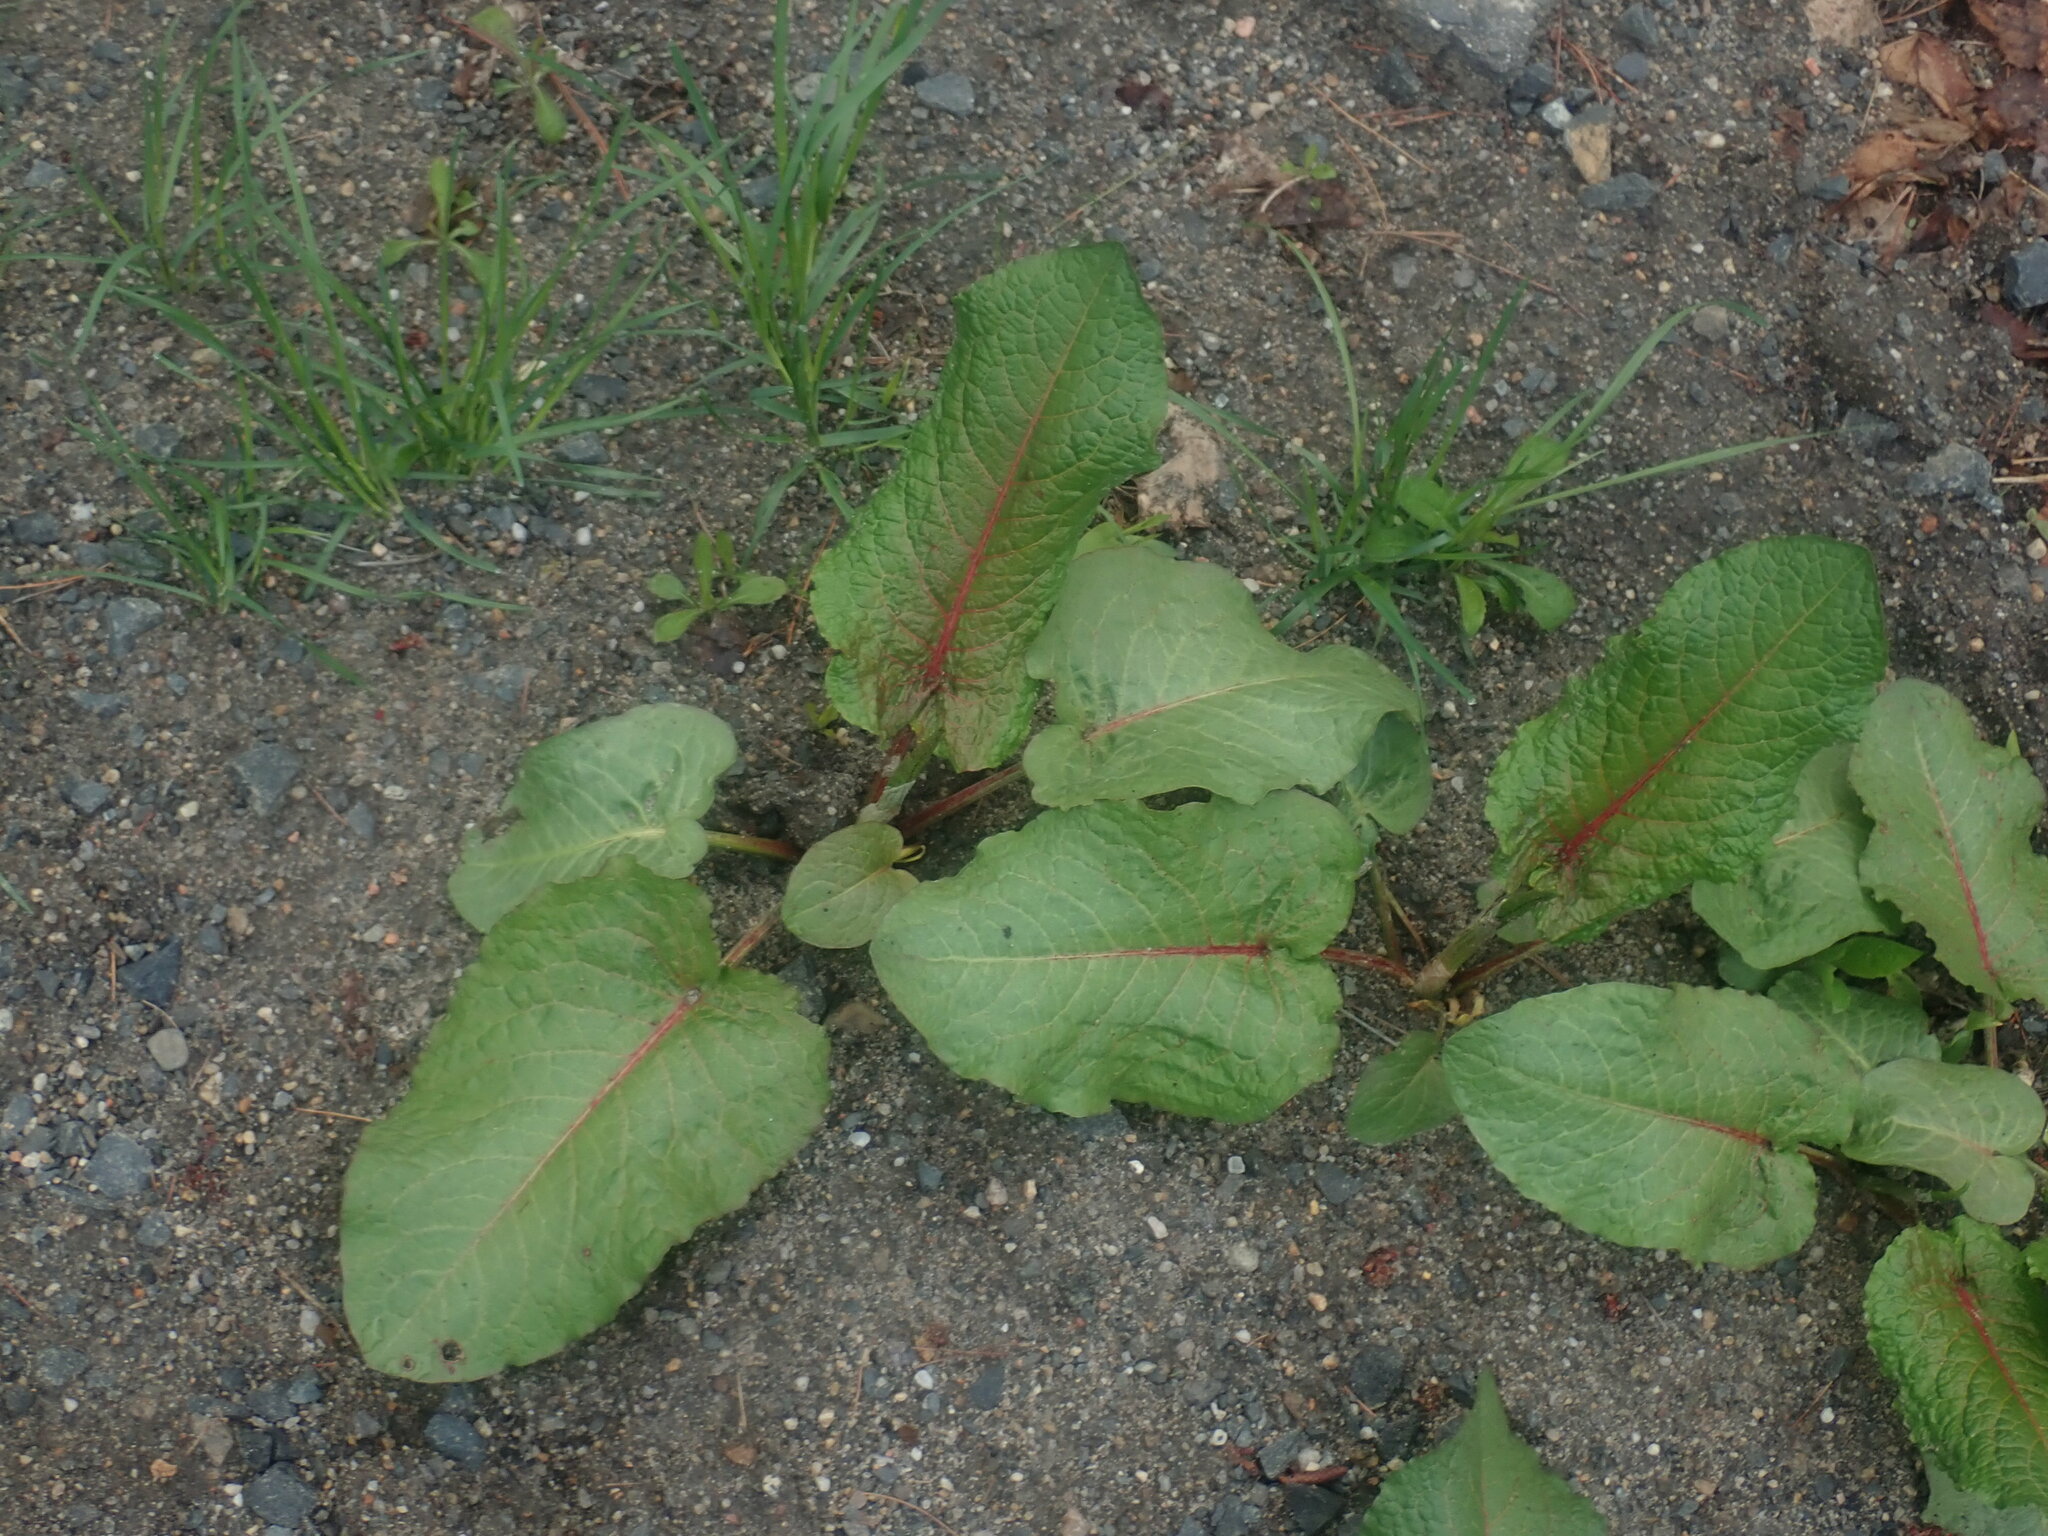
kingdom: Plantae
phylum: Tracheophyta
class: Magnoliopsida
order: Caryophyllales
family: Polygonaceae
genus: Rumex
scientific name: Rumex obtusifolius
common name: Bitter dock
